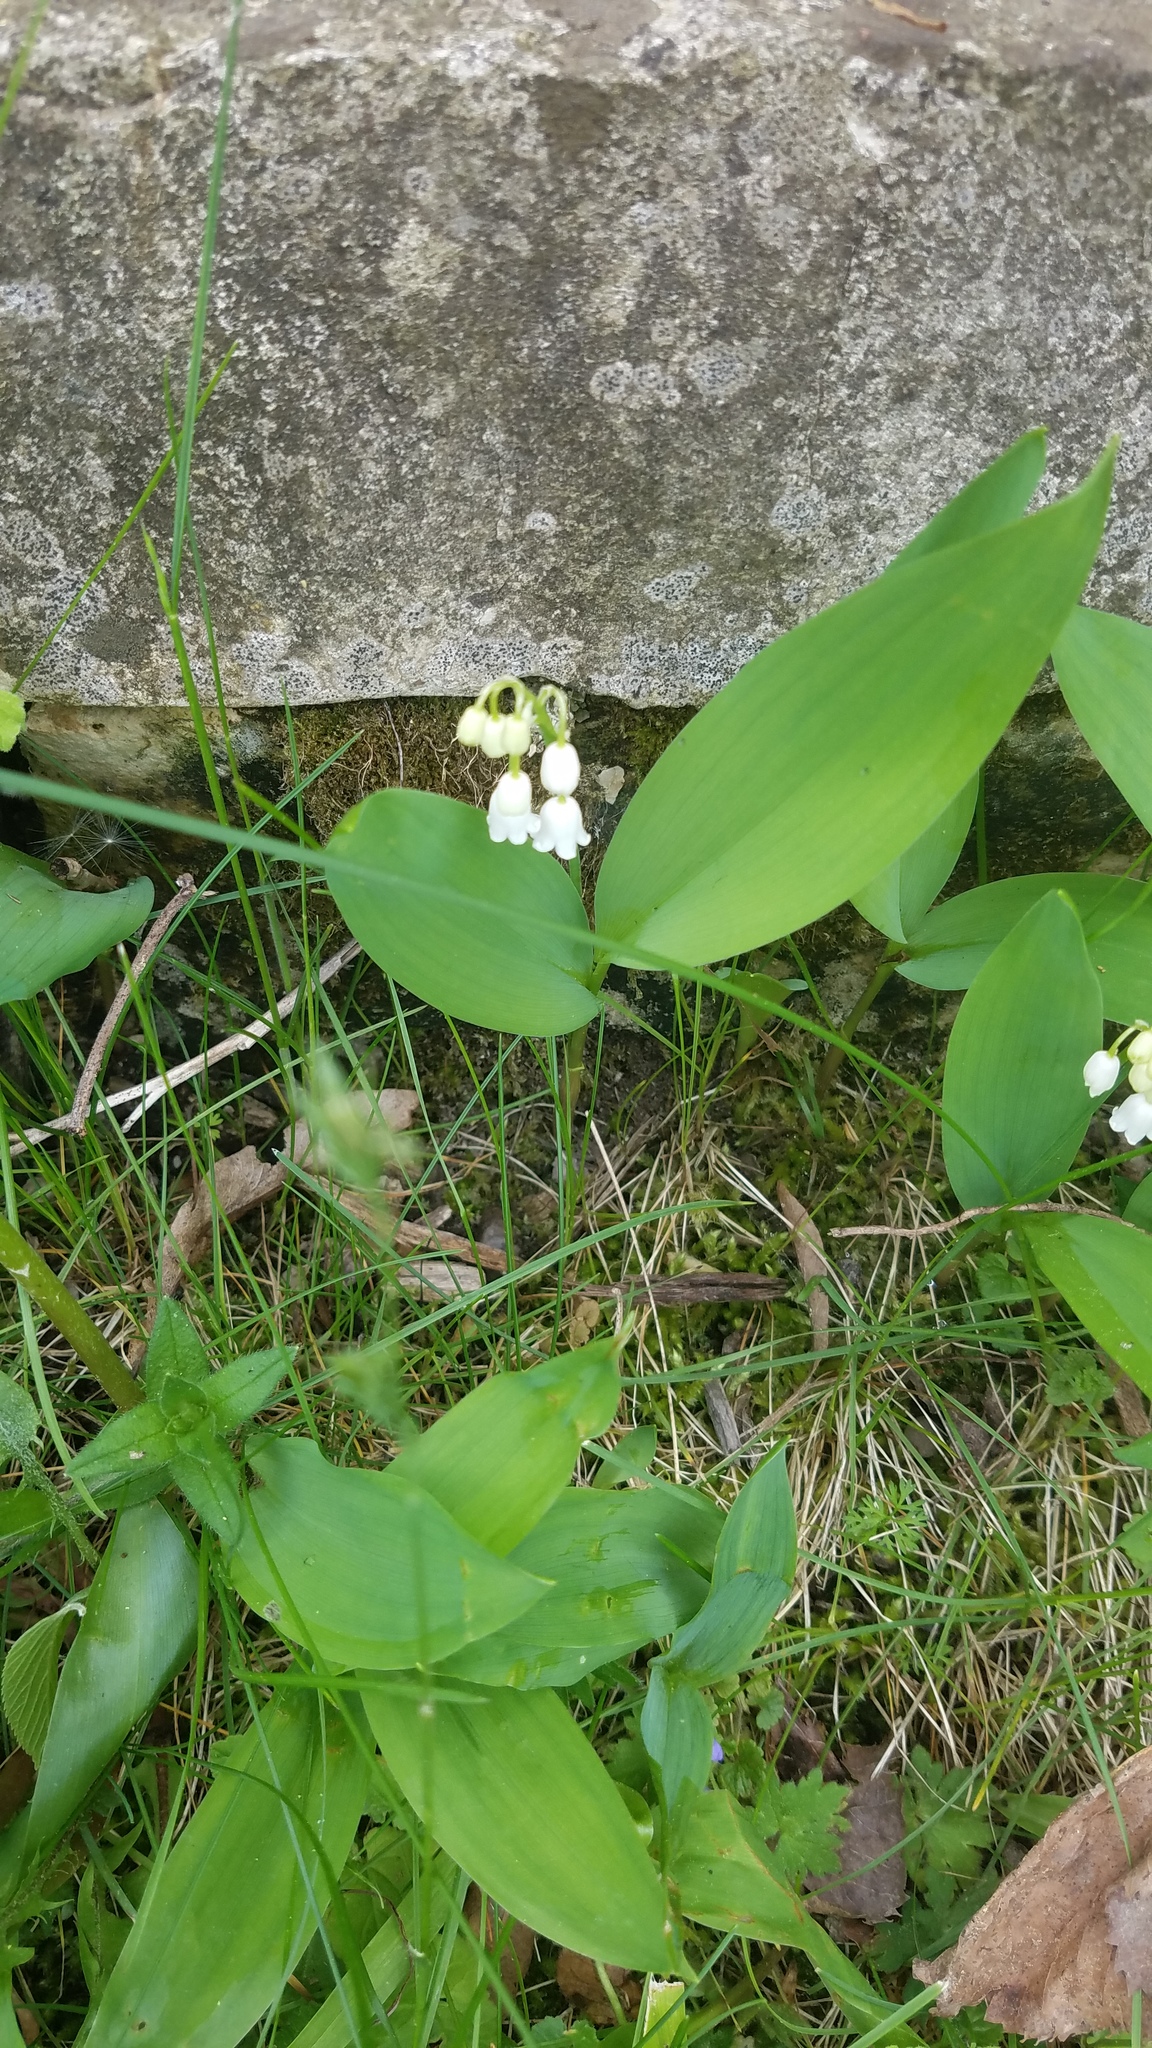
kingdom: Plantae
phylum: Tracheophyta
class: Liliopsida
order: Asparagales
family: Asparagaceae
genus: Convallaria
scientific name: Convallaria majalis
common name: Lily-of-the-valley
